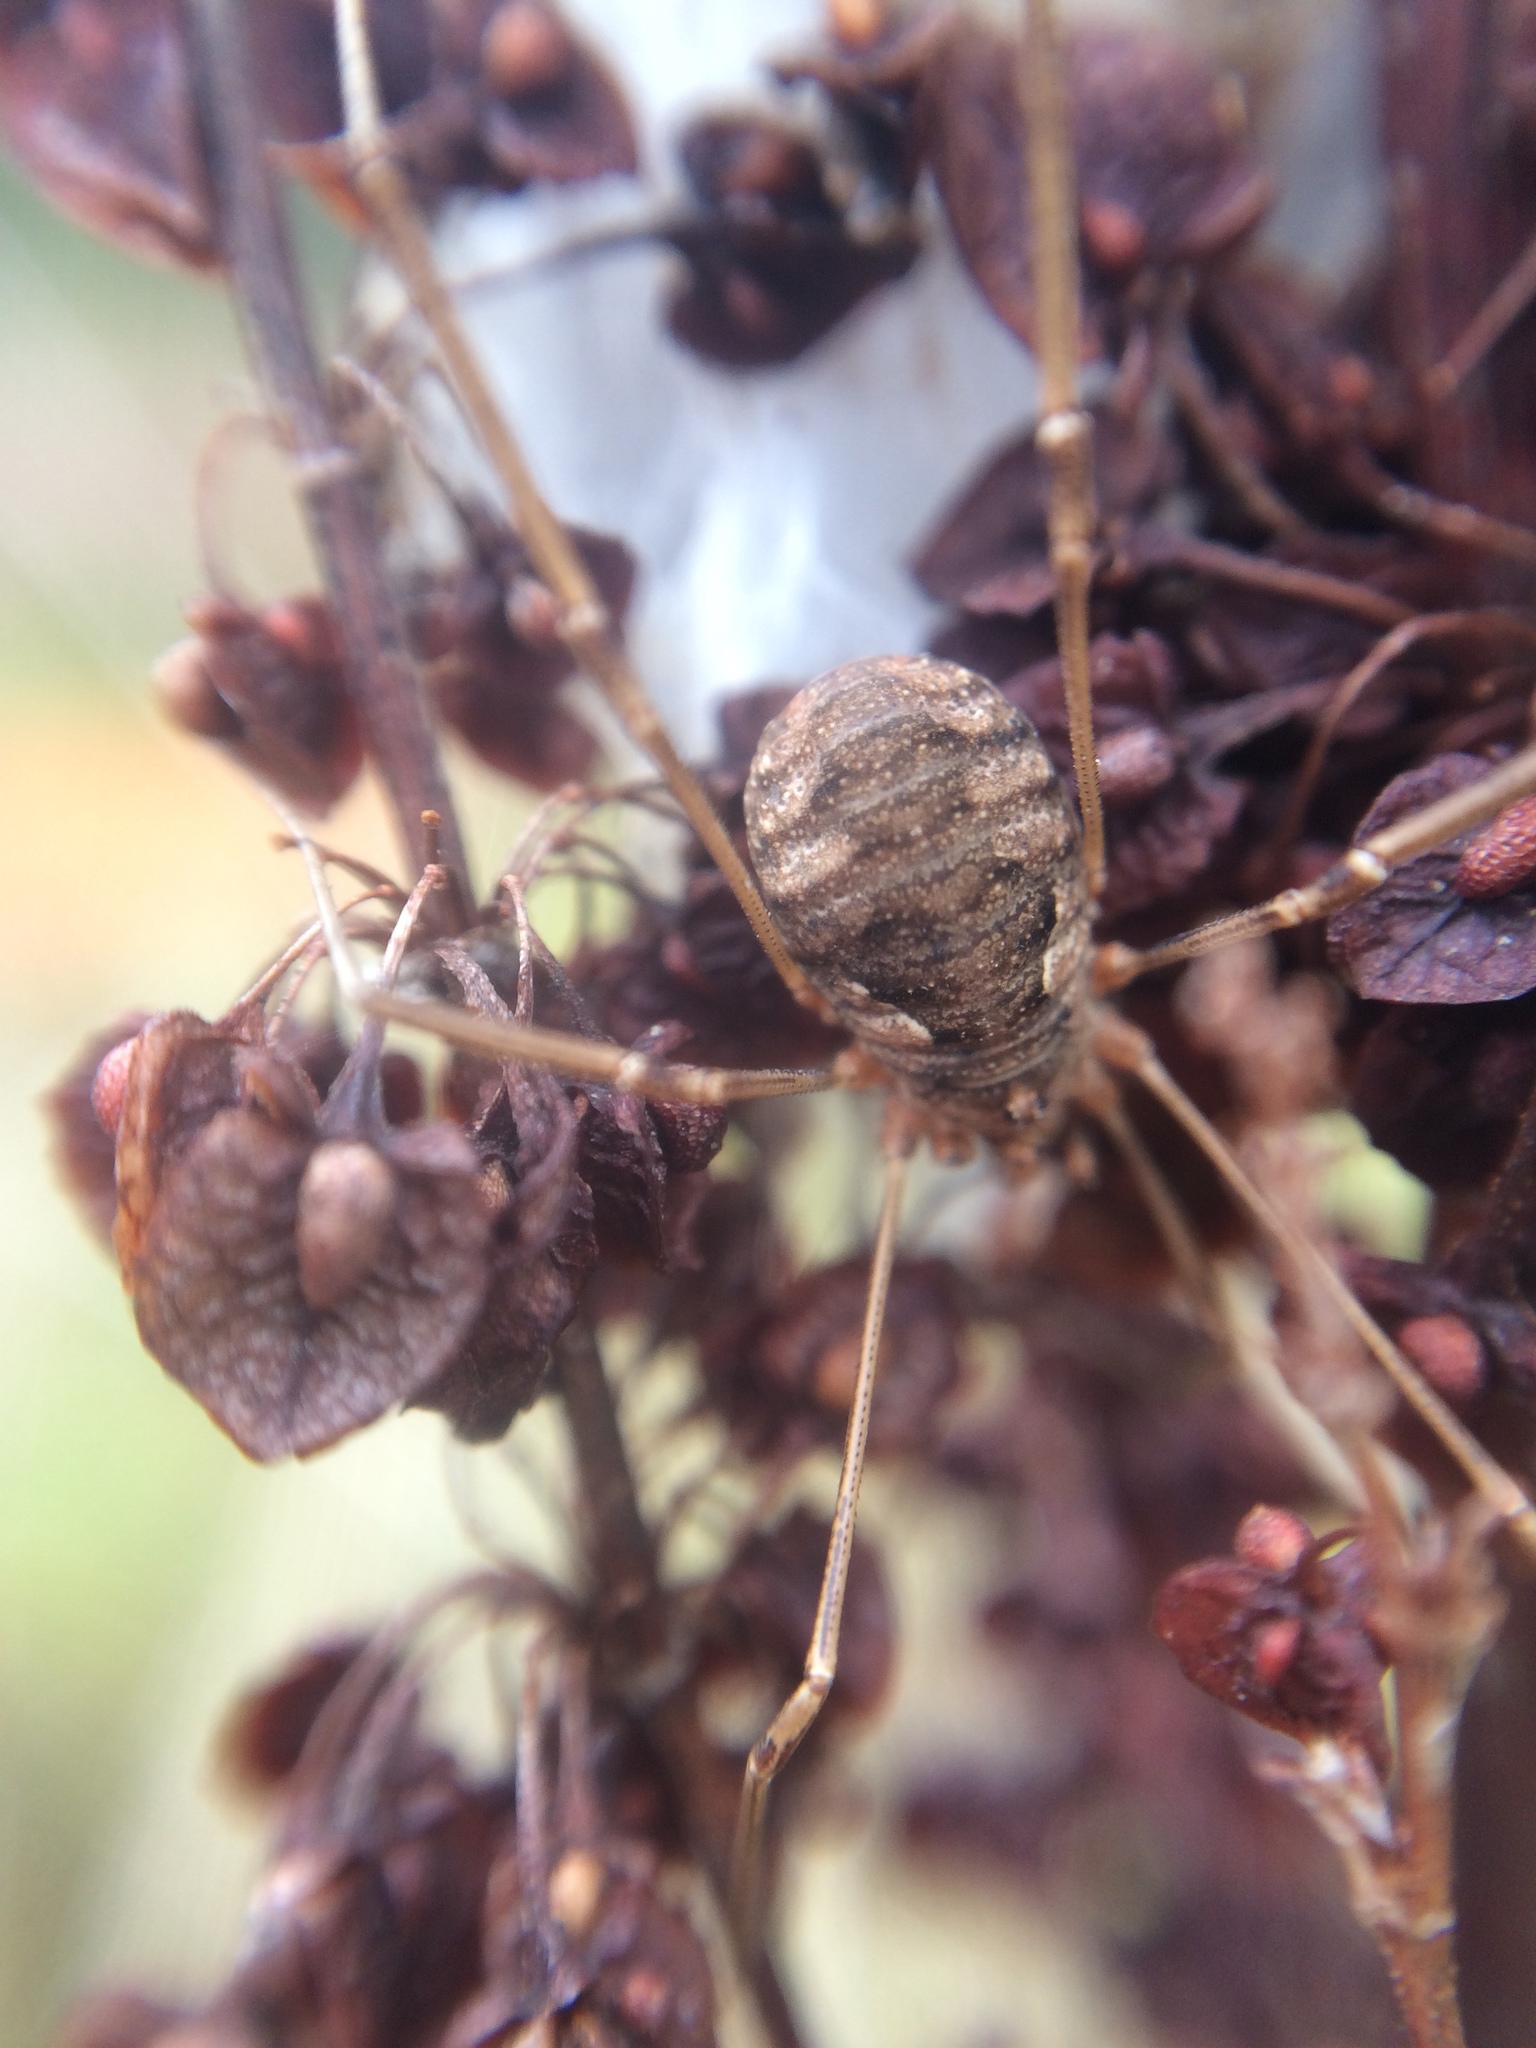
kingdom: Animalia
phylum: Arthropoda
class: Arachnida
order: Opiliones
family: Phalangiidae
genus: Phalangium
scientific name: Phalangium opilio
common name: Daddy longleg
